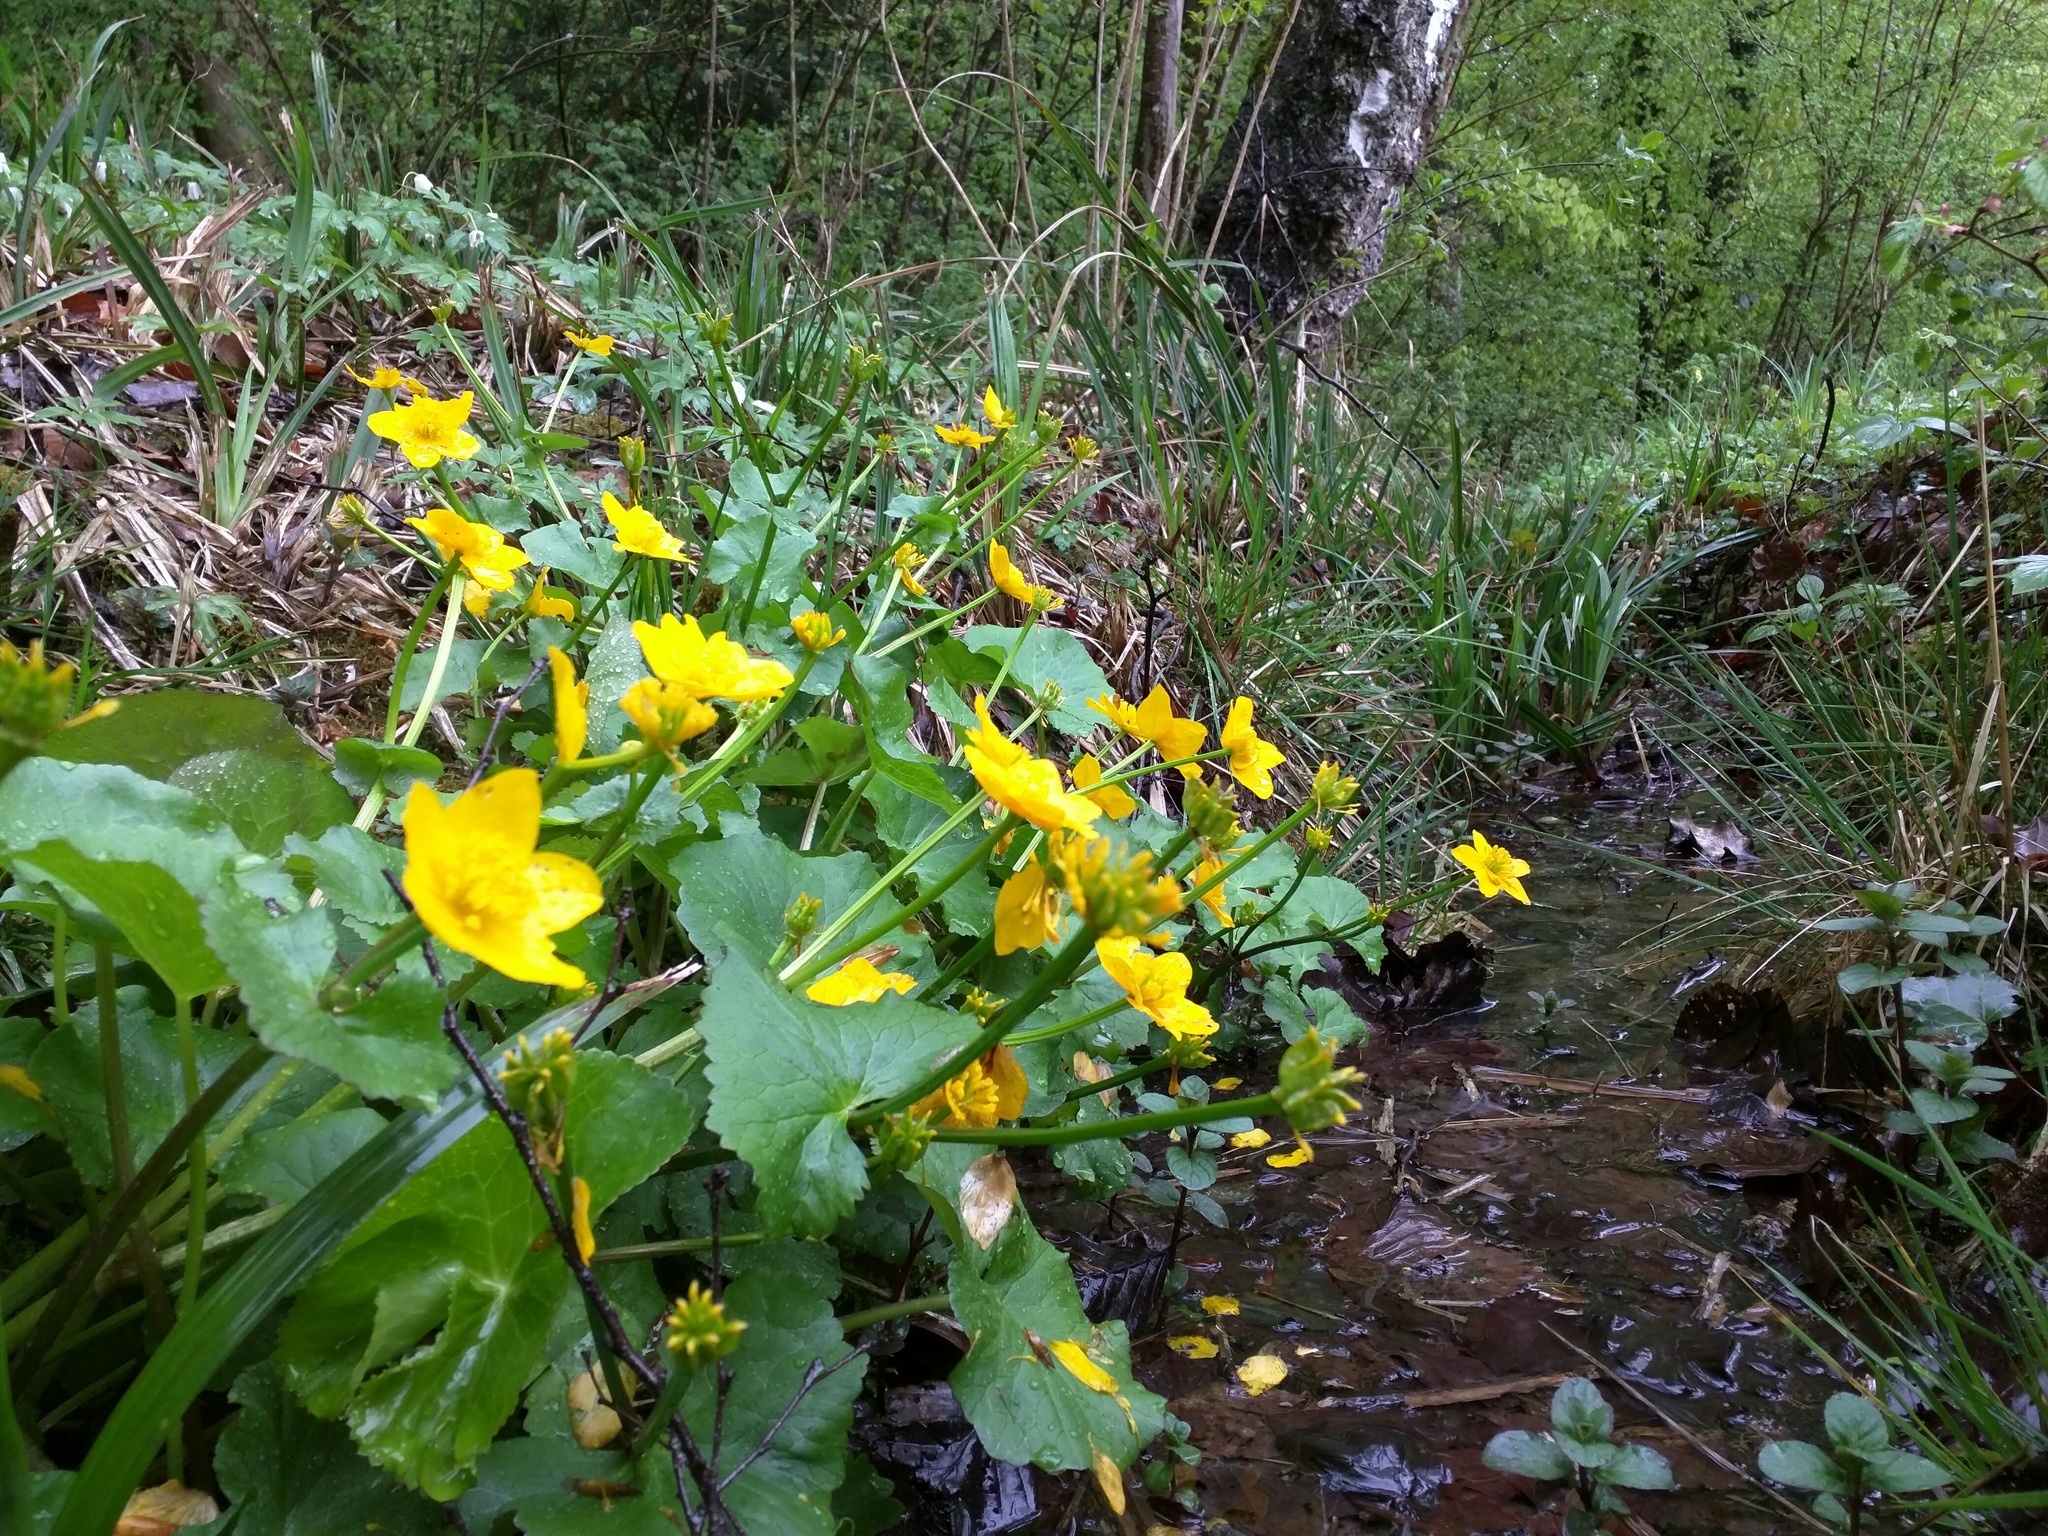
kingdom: Plantae
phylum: Tracheophyta
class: Magnoliopsida
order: Ranunculales
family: Ranunculaceae
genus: Caltha
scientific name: Caltha palustris
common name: Marsh marigold
